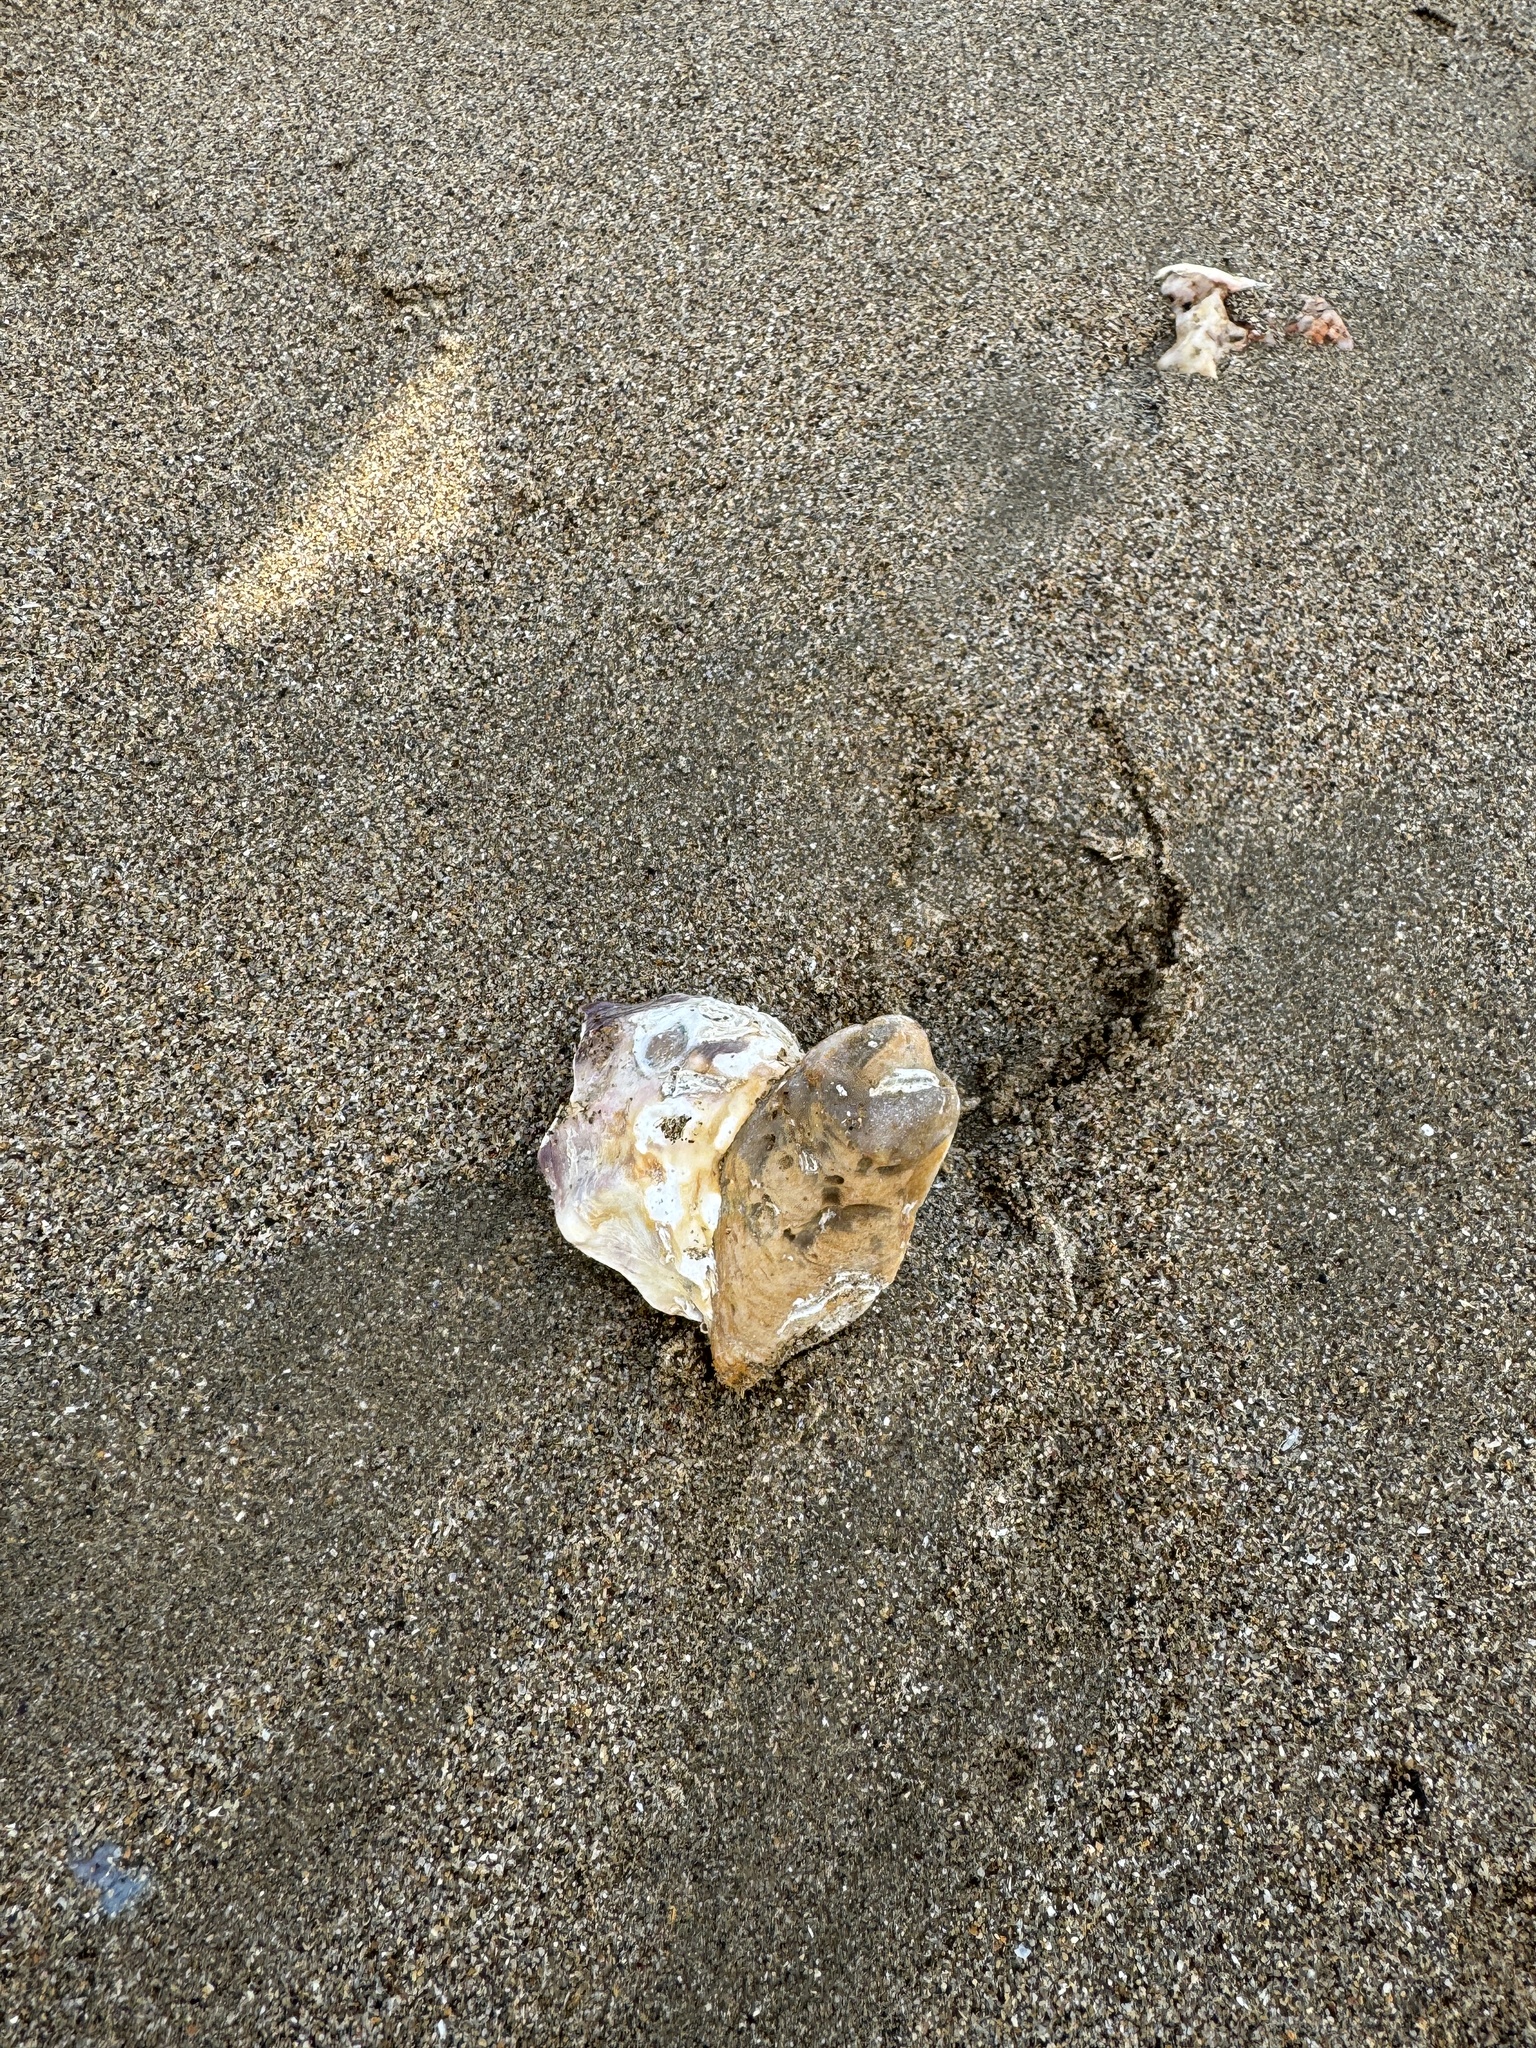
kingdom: Animalia
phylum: Mollusca
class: Bivalvia
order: Ostreida
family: Ostreidae
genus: Magallana
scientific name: Magallana gigas
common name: Pacific oyster
